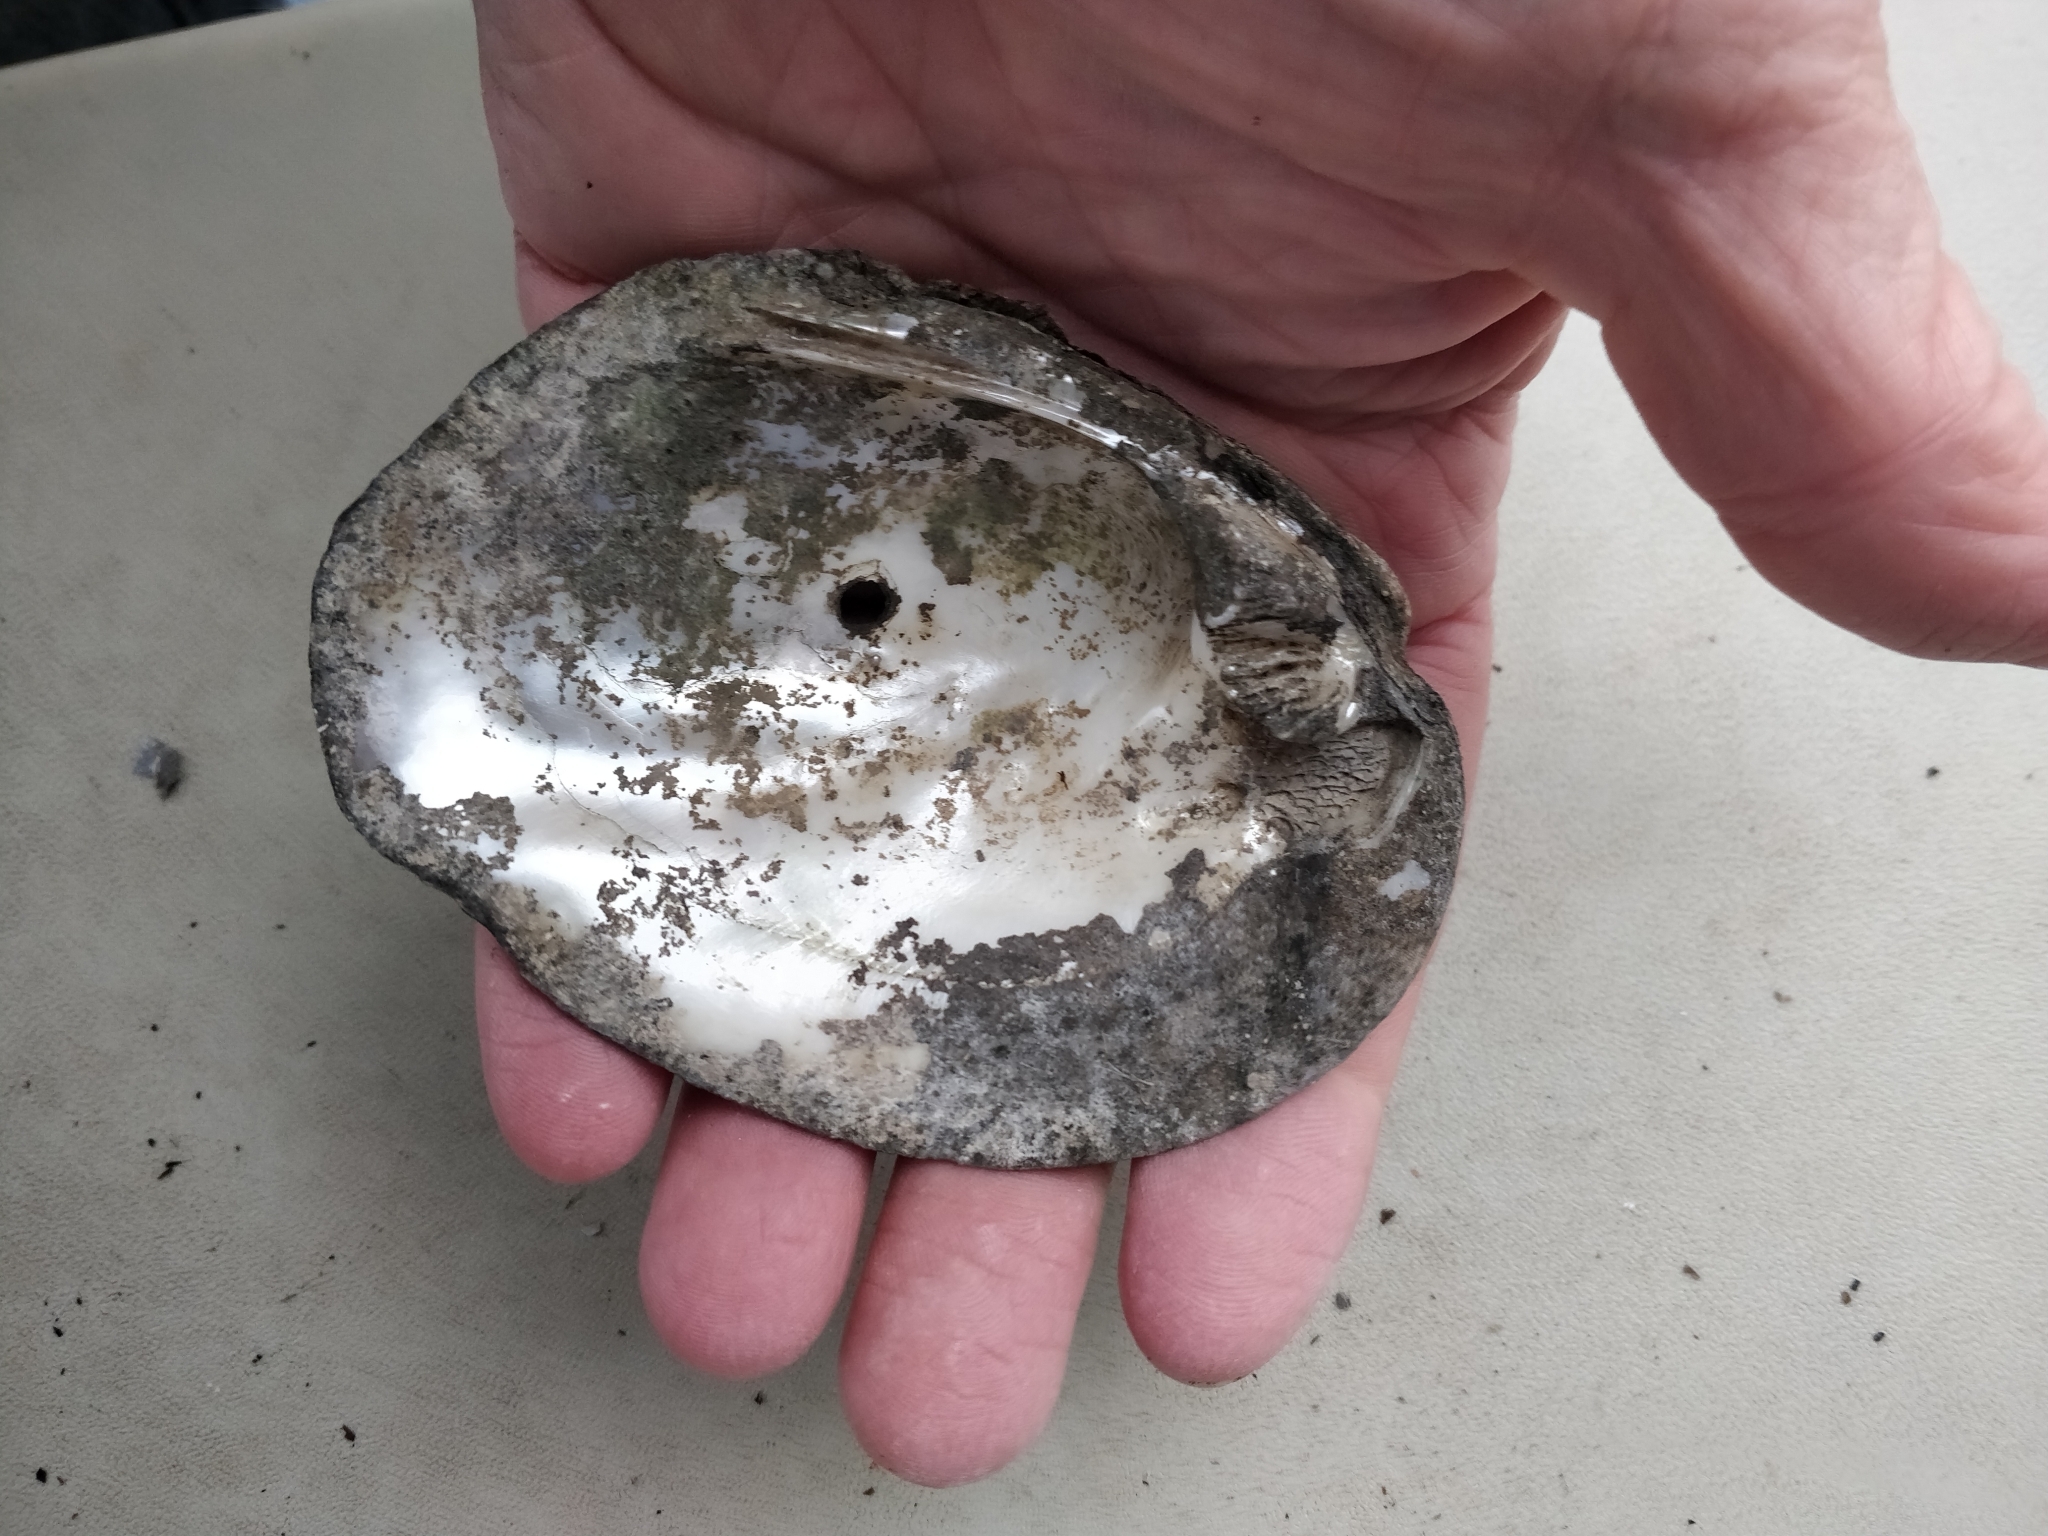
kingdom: Animalia
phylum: Mollusca
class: Bivalvia
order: Unionida
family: Unionidae
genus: Amblema
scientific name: Amblema plicata
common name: Threeridge
